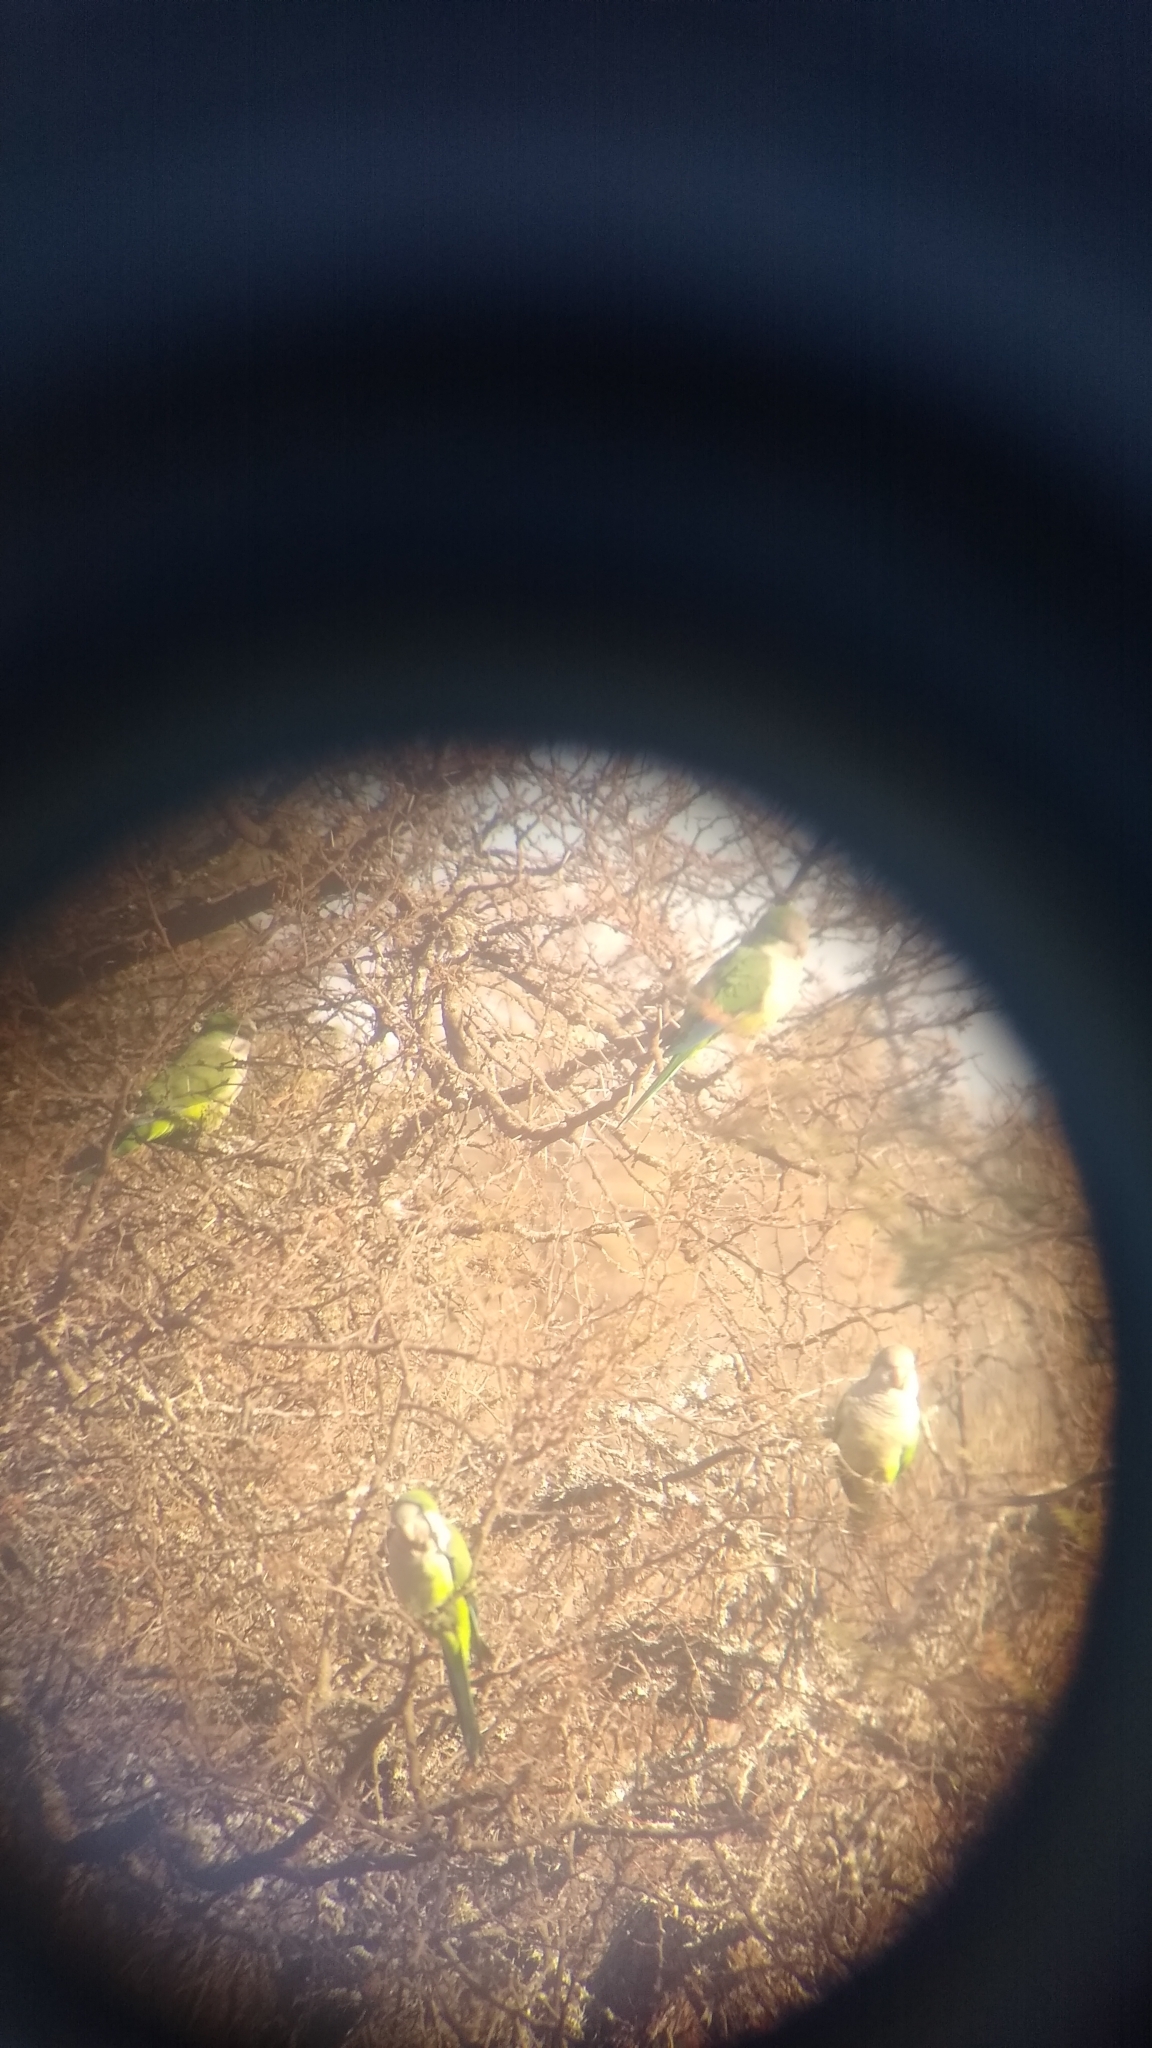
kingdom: Animalia
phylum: Chordata
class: Aves
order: Psittaciformes
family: Psittacidae
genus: Myiopsitta
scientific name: Myiopsitta monachus
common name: Monk parakeet
